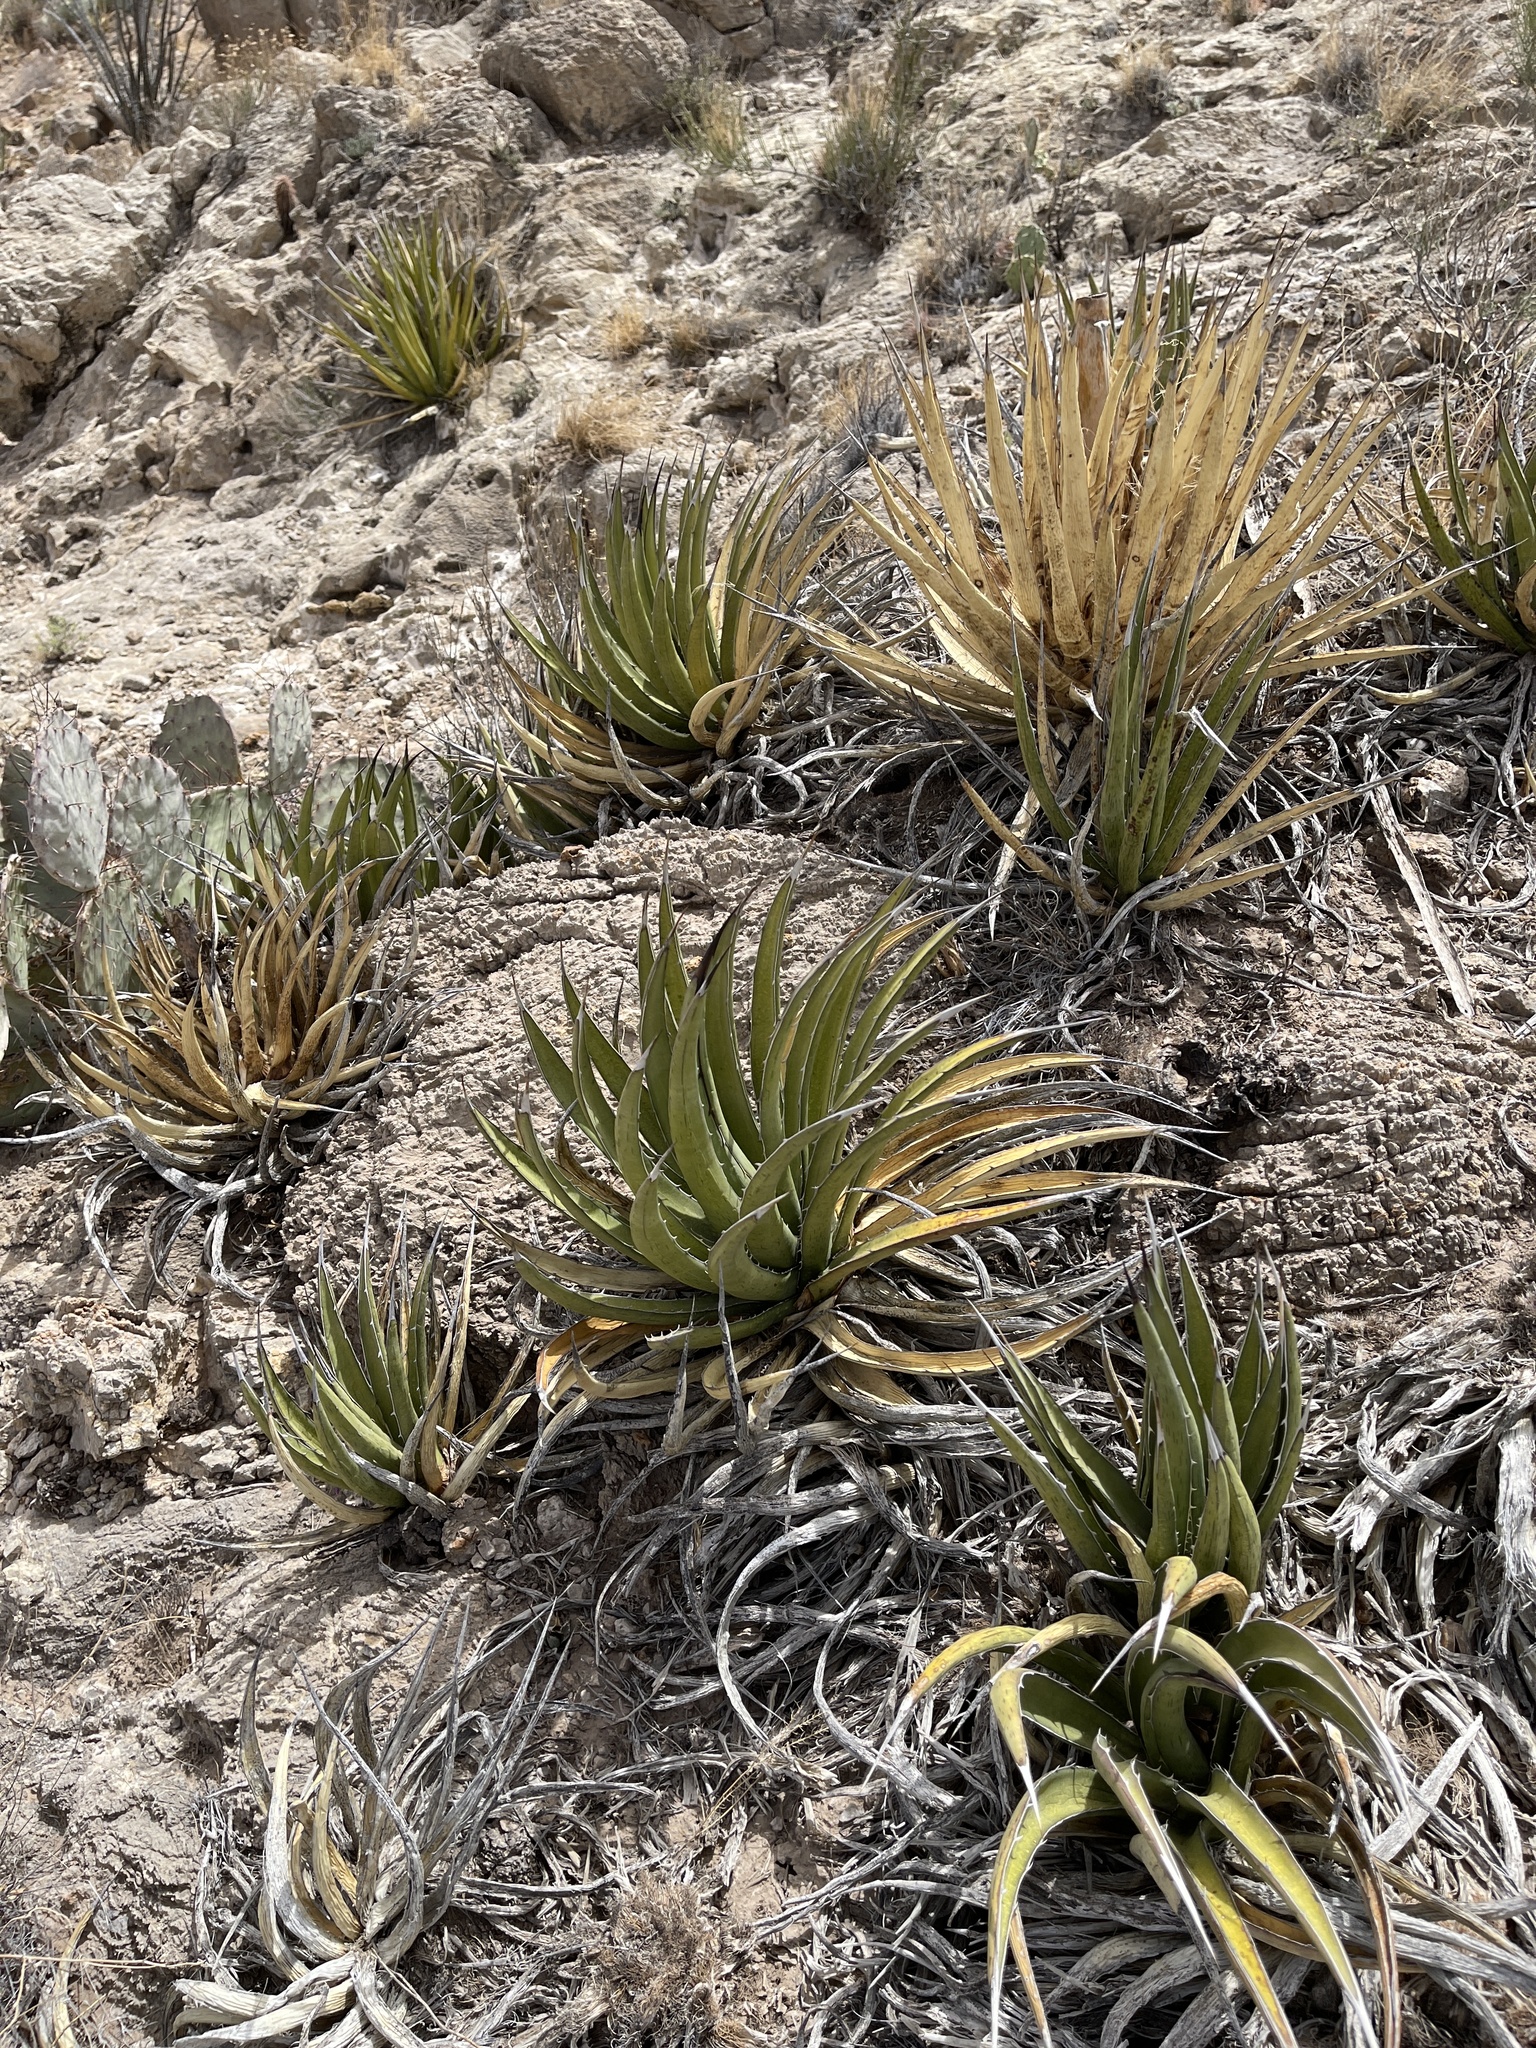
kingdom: Plantae
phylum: Tracheophyta
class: Liliopsida
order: Asparagales
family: Asparagaceae
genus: Agave
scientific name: Agave lechuguilla
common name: Lecheguilla agave
